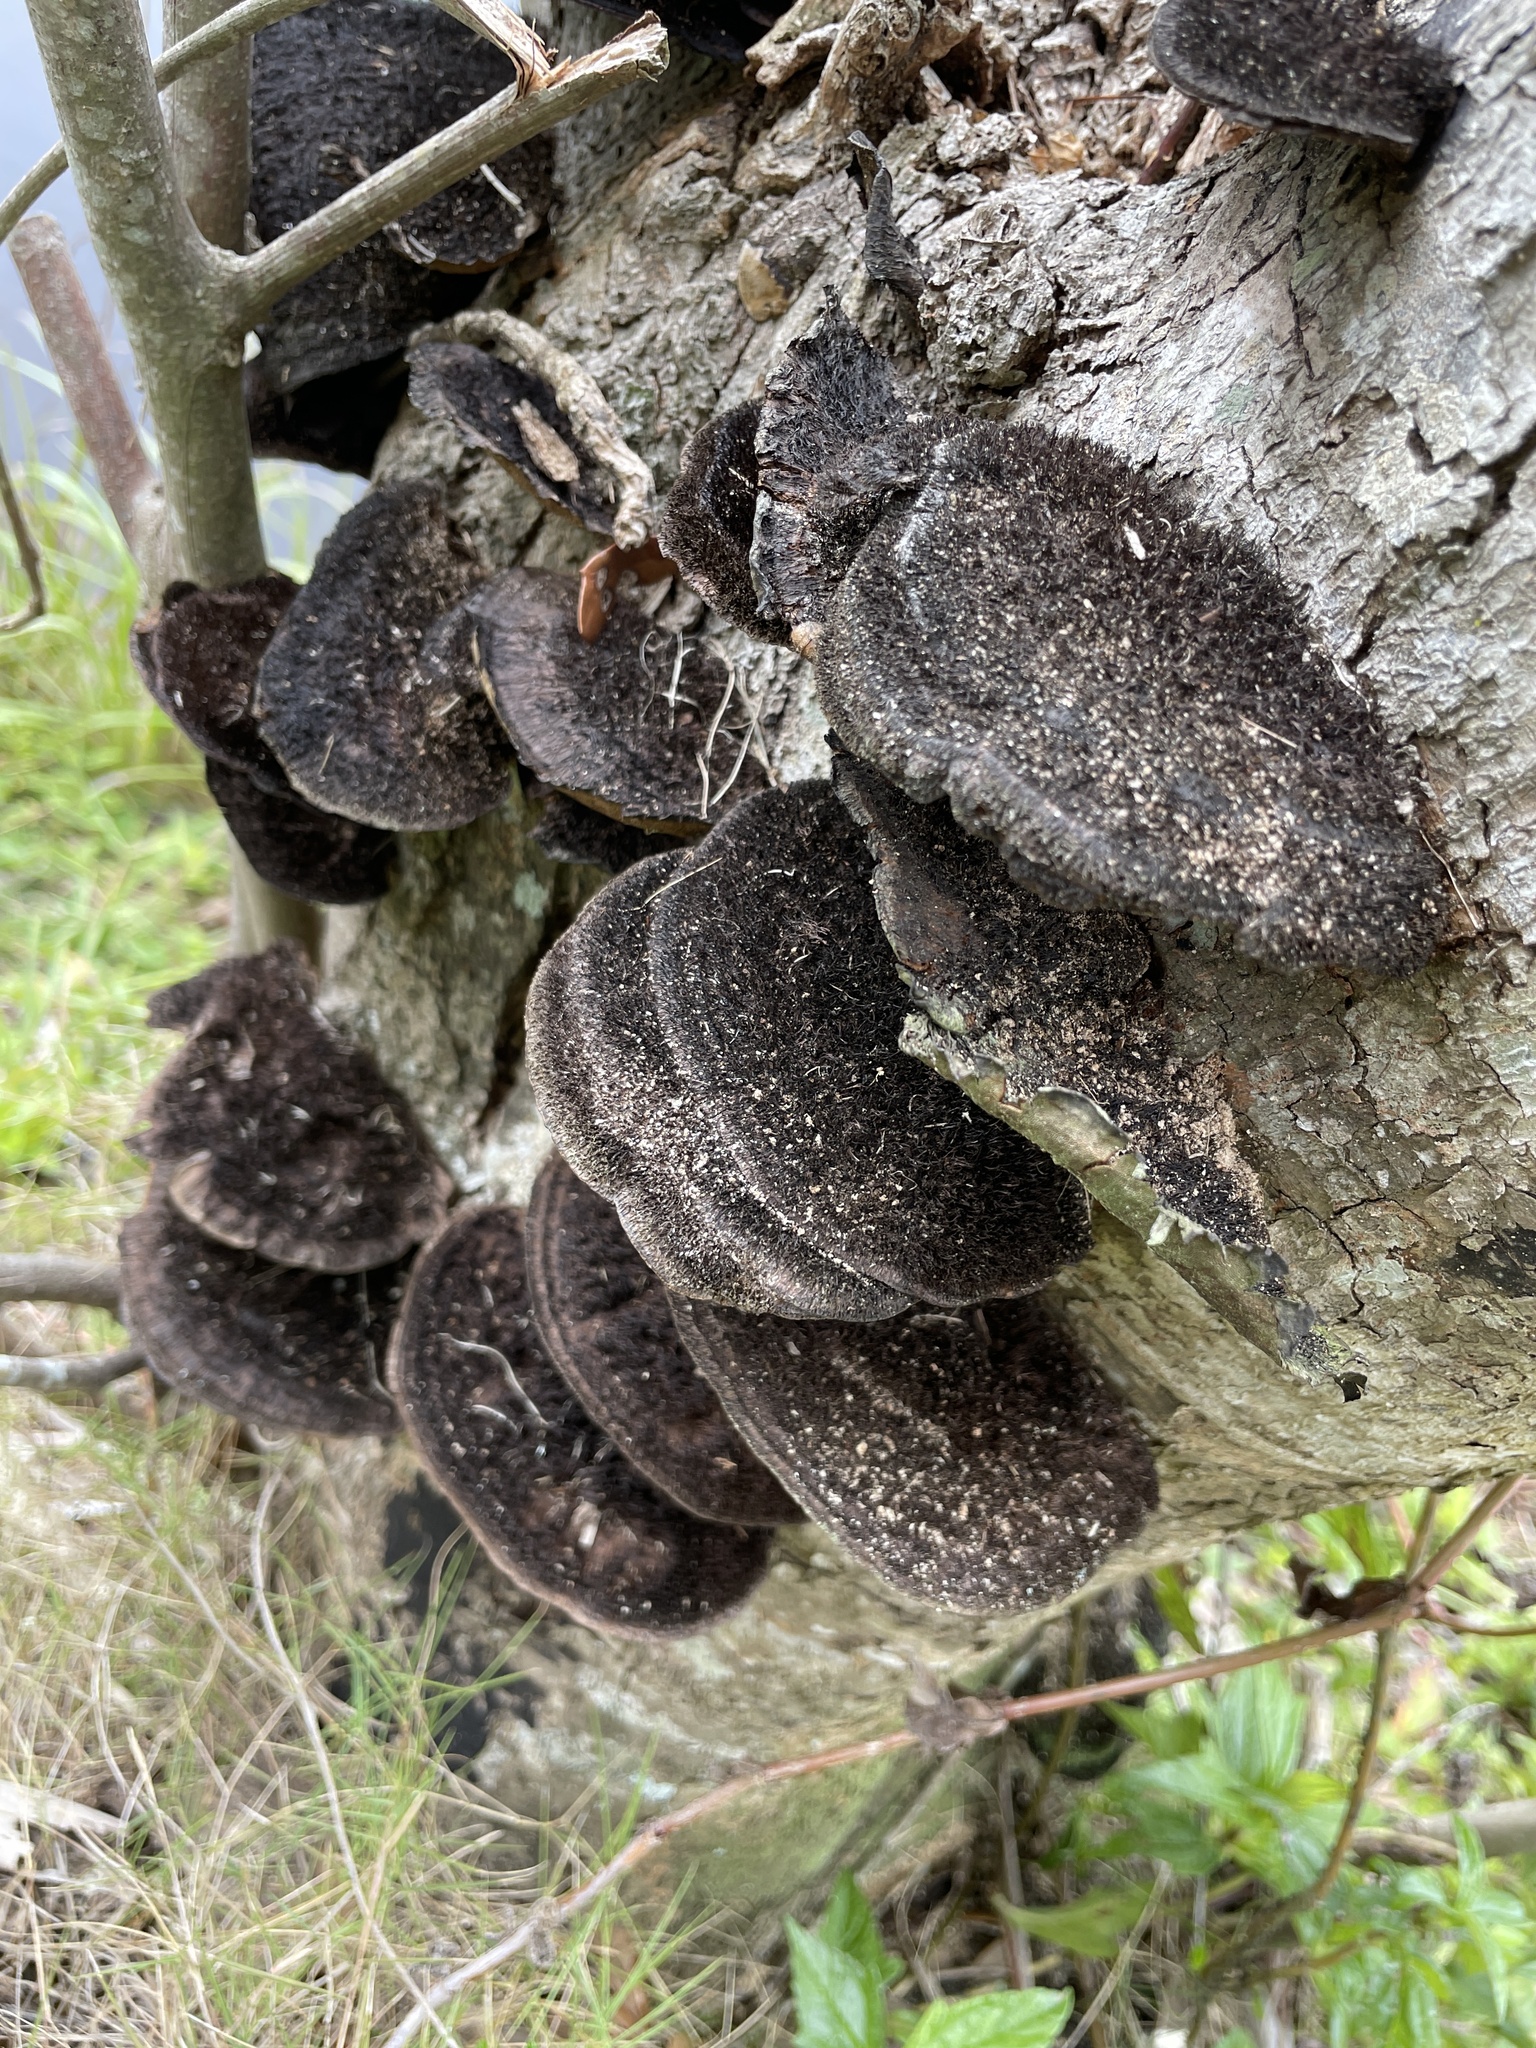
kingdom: Fungi
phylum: Basidiomycota
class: Agaricomycetes
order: Polyporales
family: Cerrenaceae
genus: Cerrena
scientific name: Cerrena hydnoides
